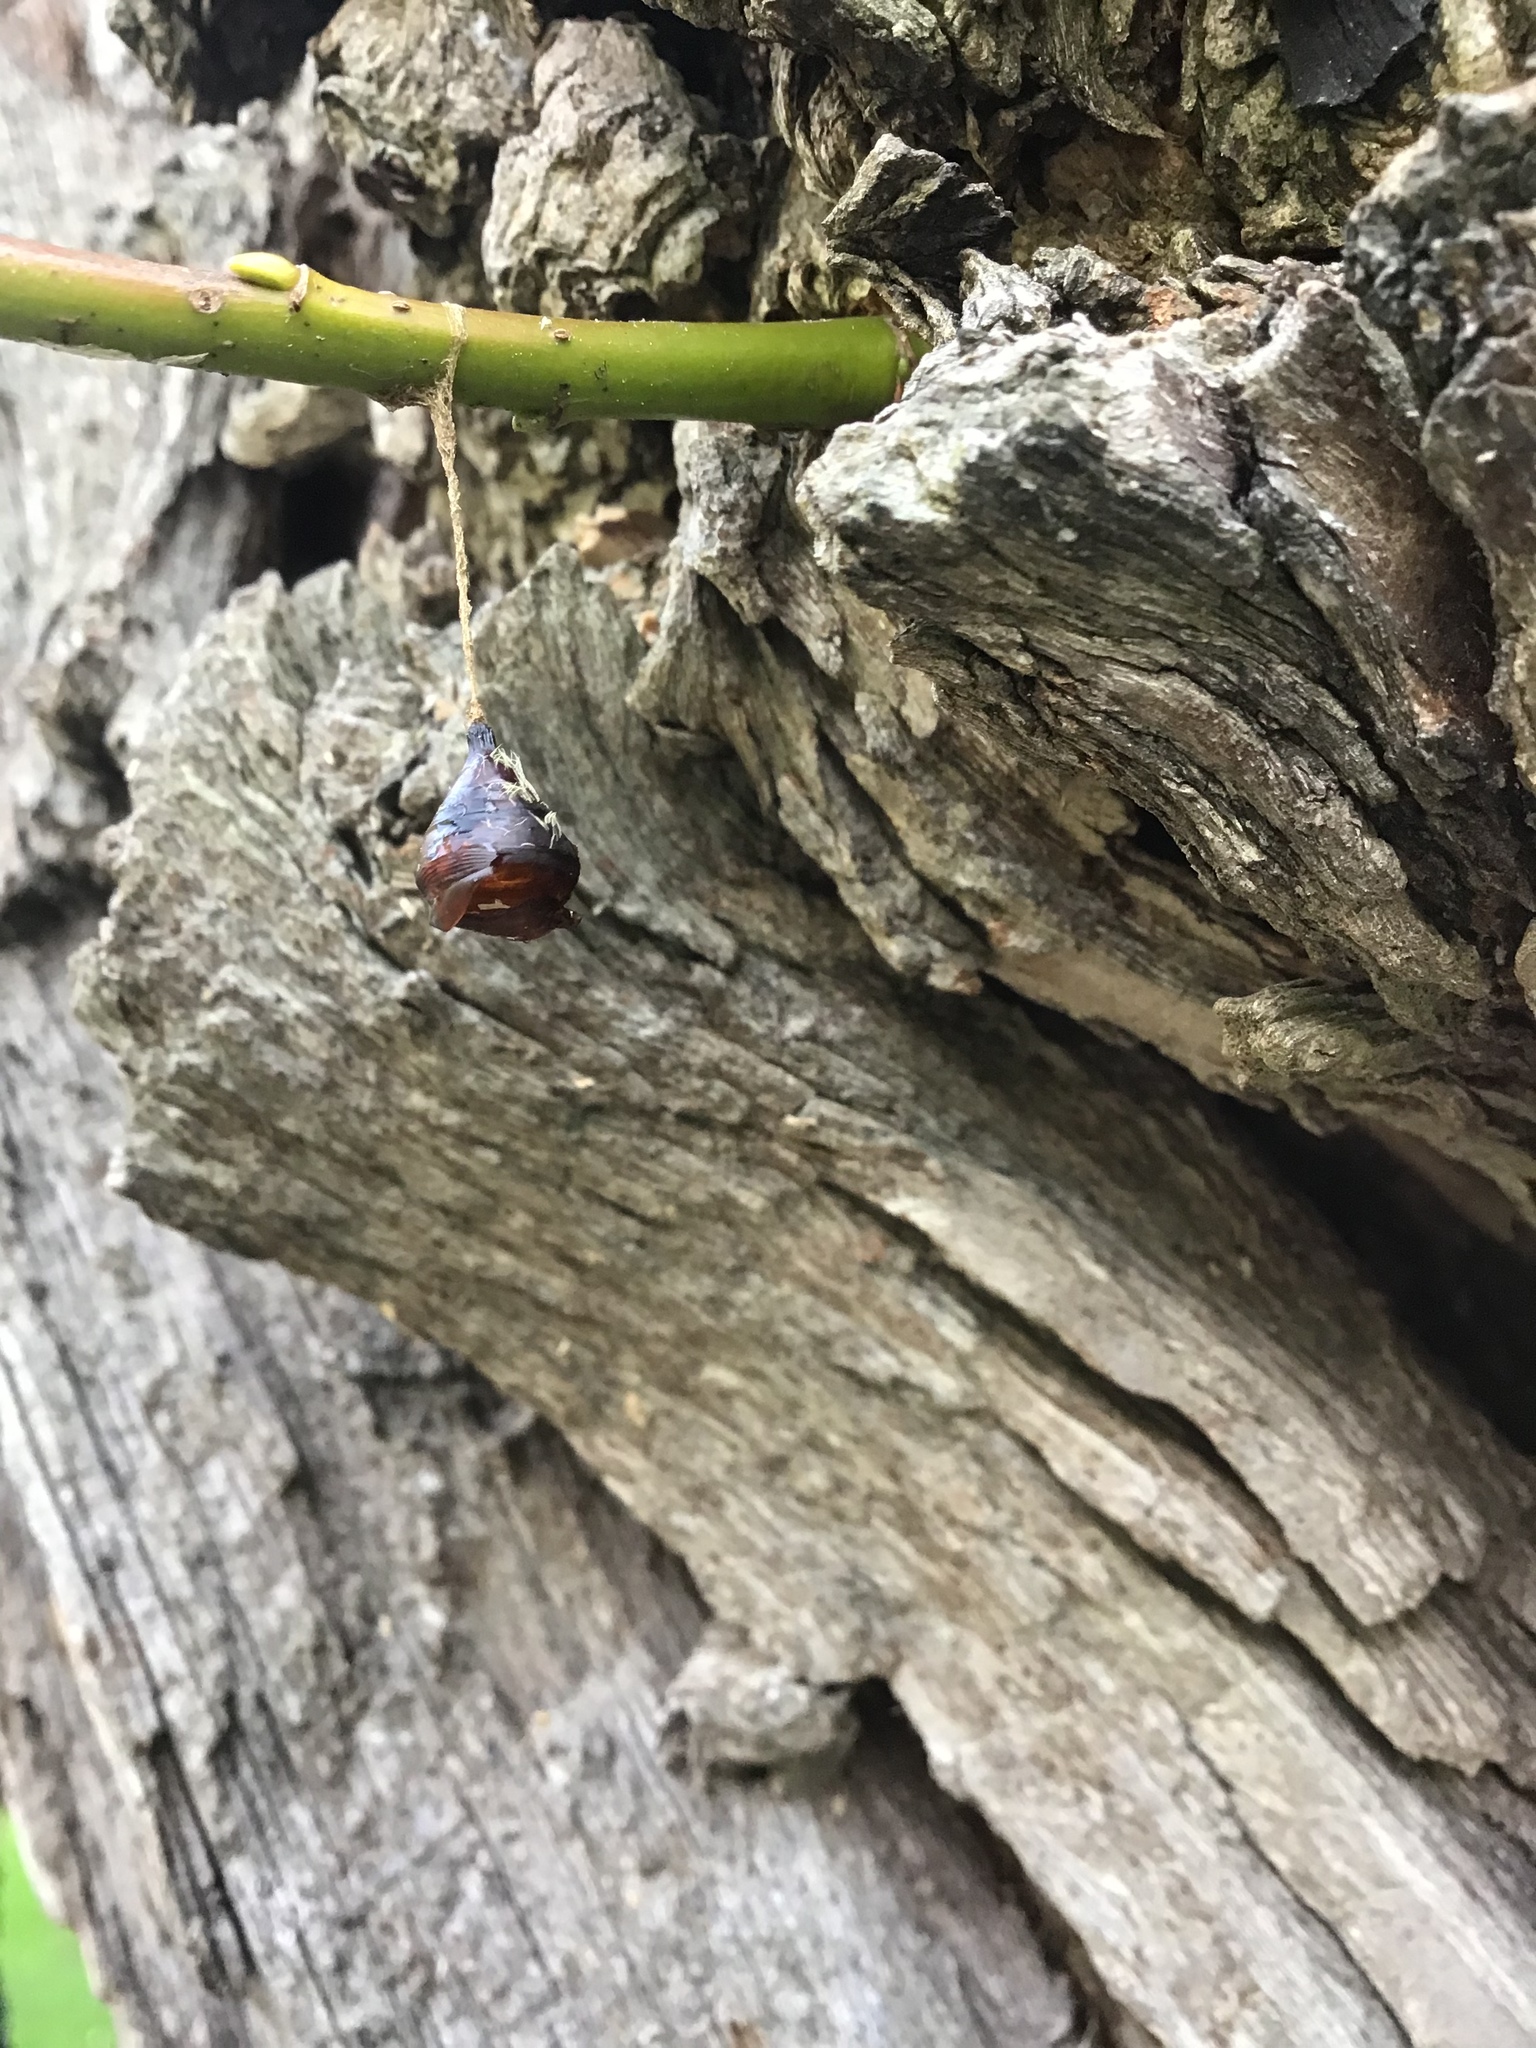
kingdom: Animalia
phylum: Arthropoda
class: Insecta
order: Lepidoptera
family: Erebidae
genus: Lymantria
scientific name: Lymantria dispar
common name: Gypsy moth
